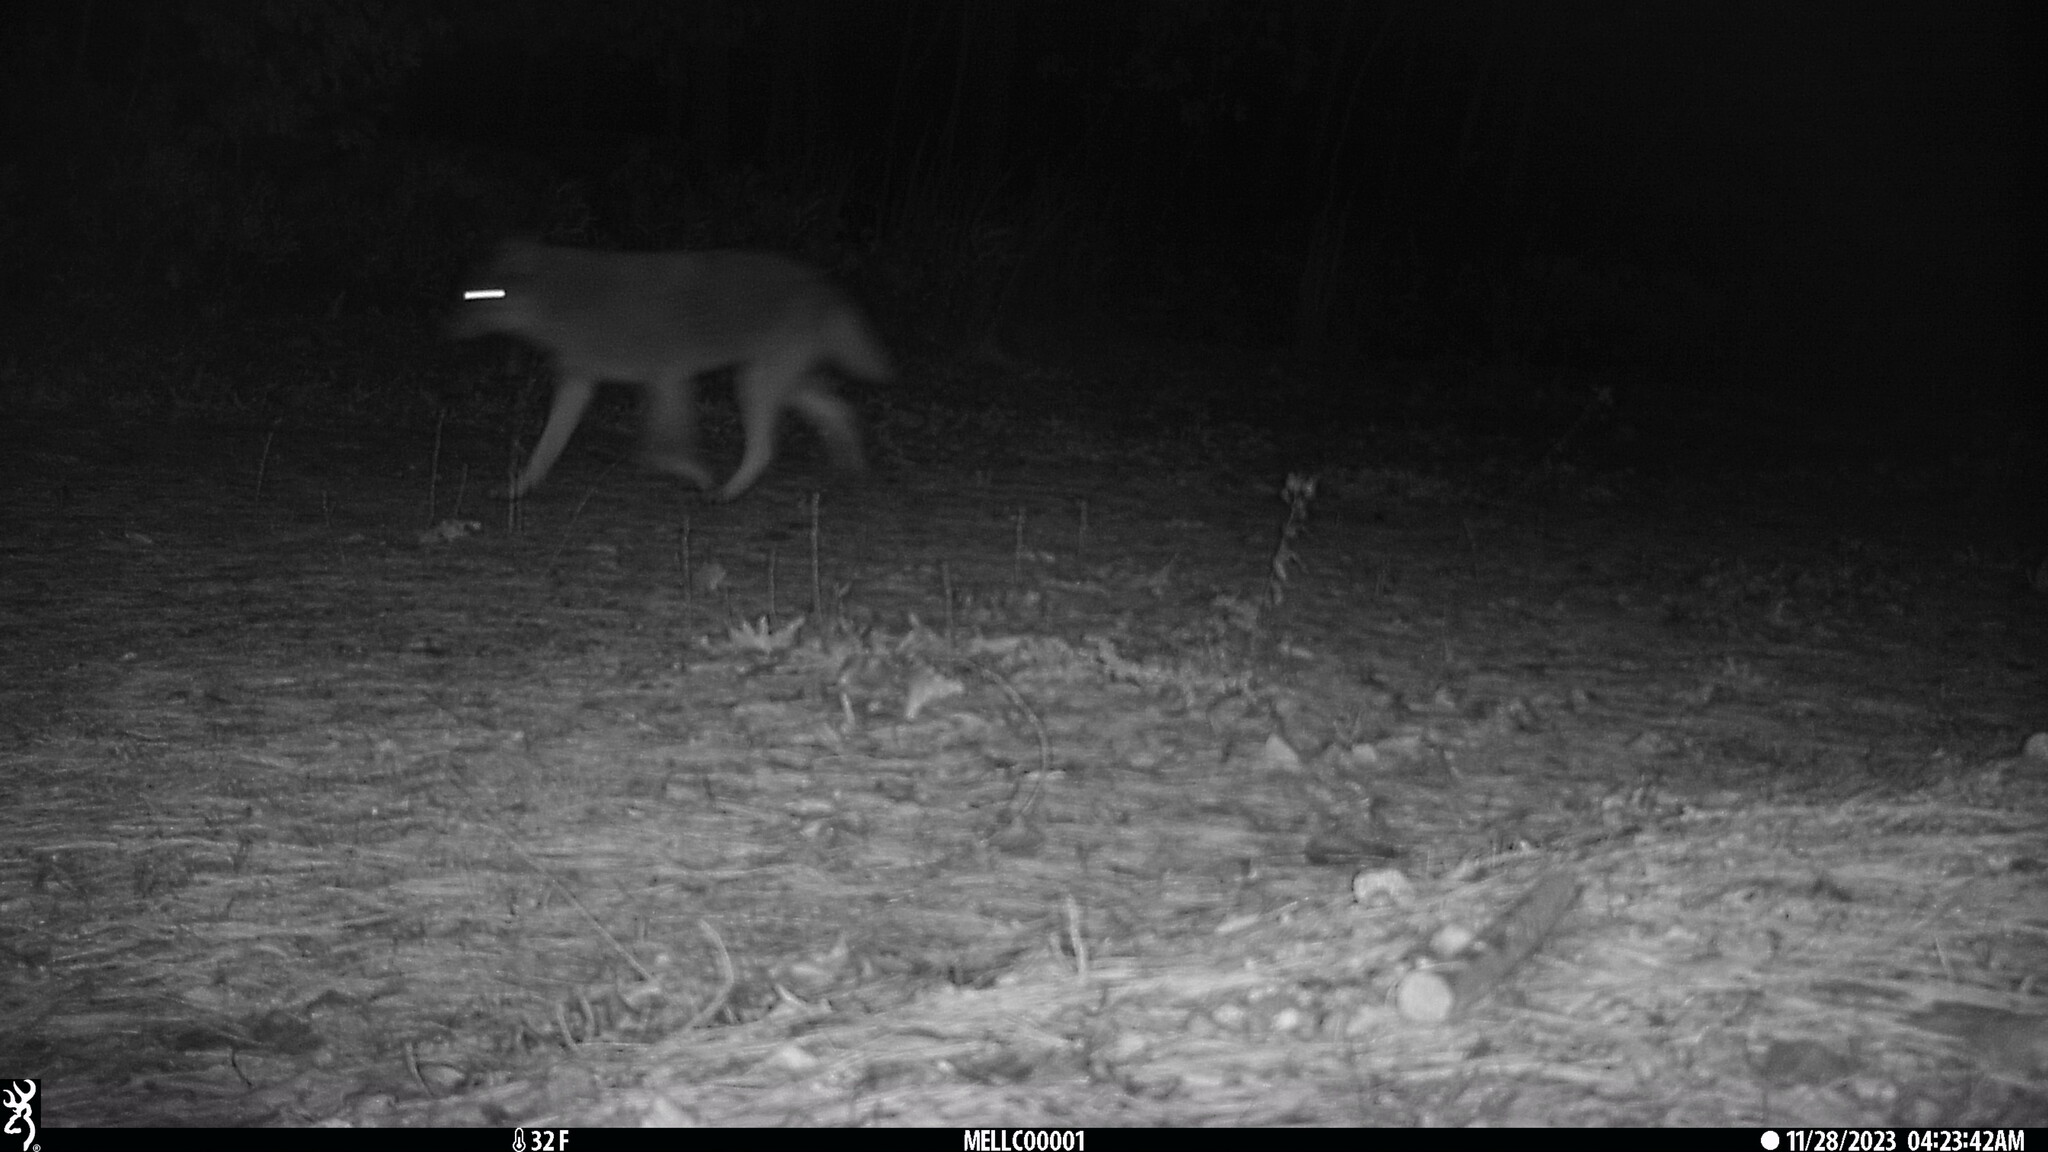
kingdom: Animalia
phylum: Chordata
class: Mammalia
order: Carnivora
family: Canidae
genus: Canis
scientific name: Canis latrans
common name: Coyote
